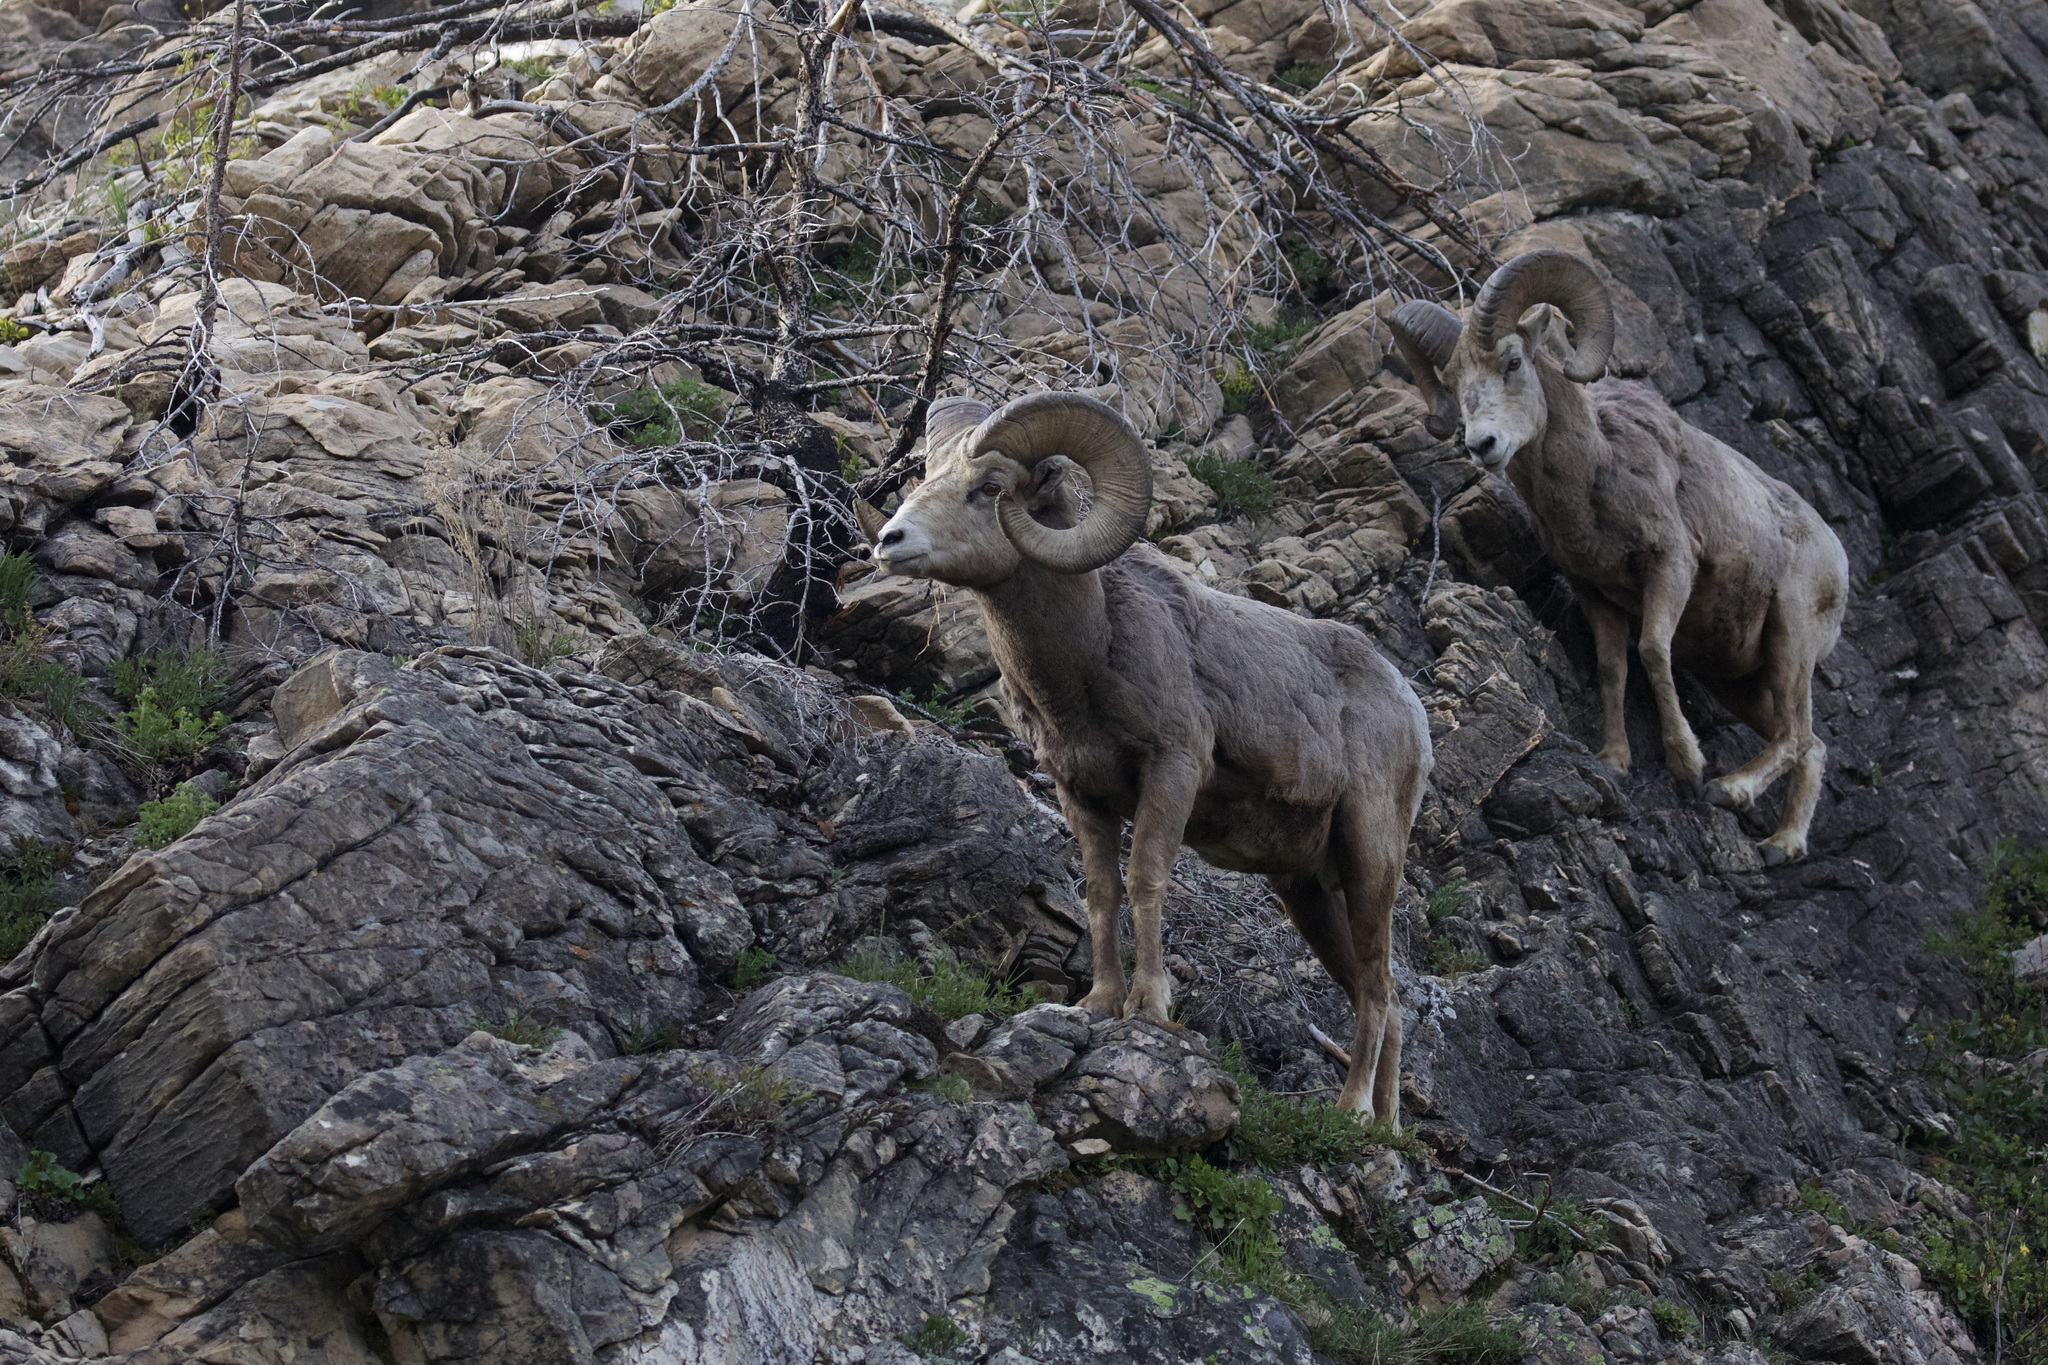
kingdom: Animalia
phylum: Chordata
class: Mammalia
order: Artiodactyla
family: Bovidae
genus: Ovis
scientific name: Ovis canadensis
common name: Bighorn sheep
